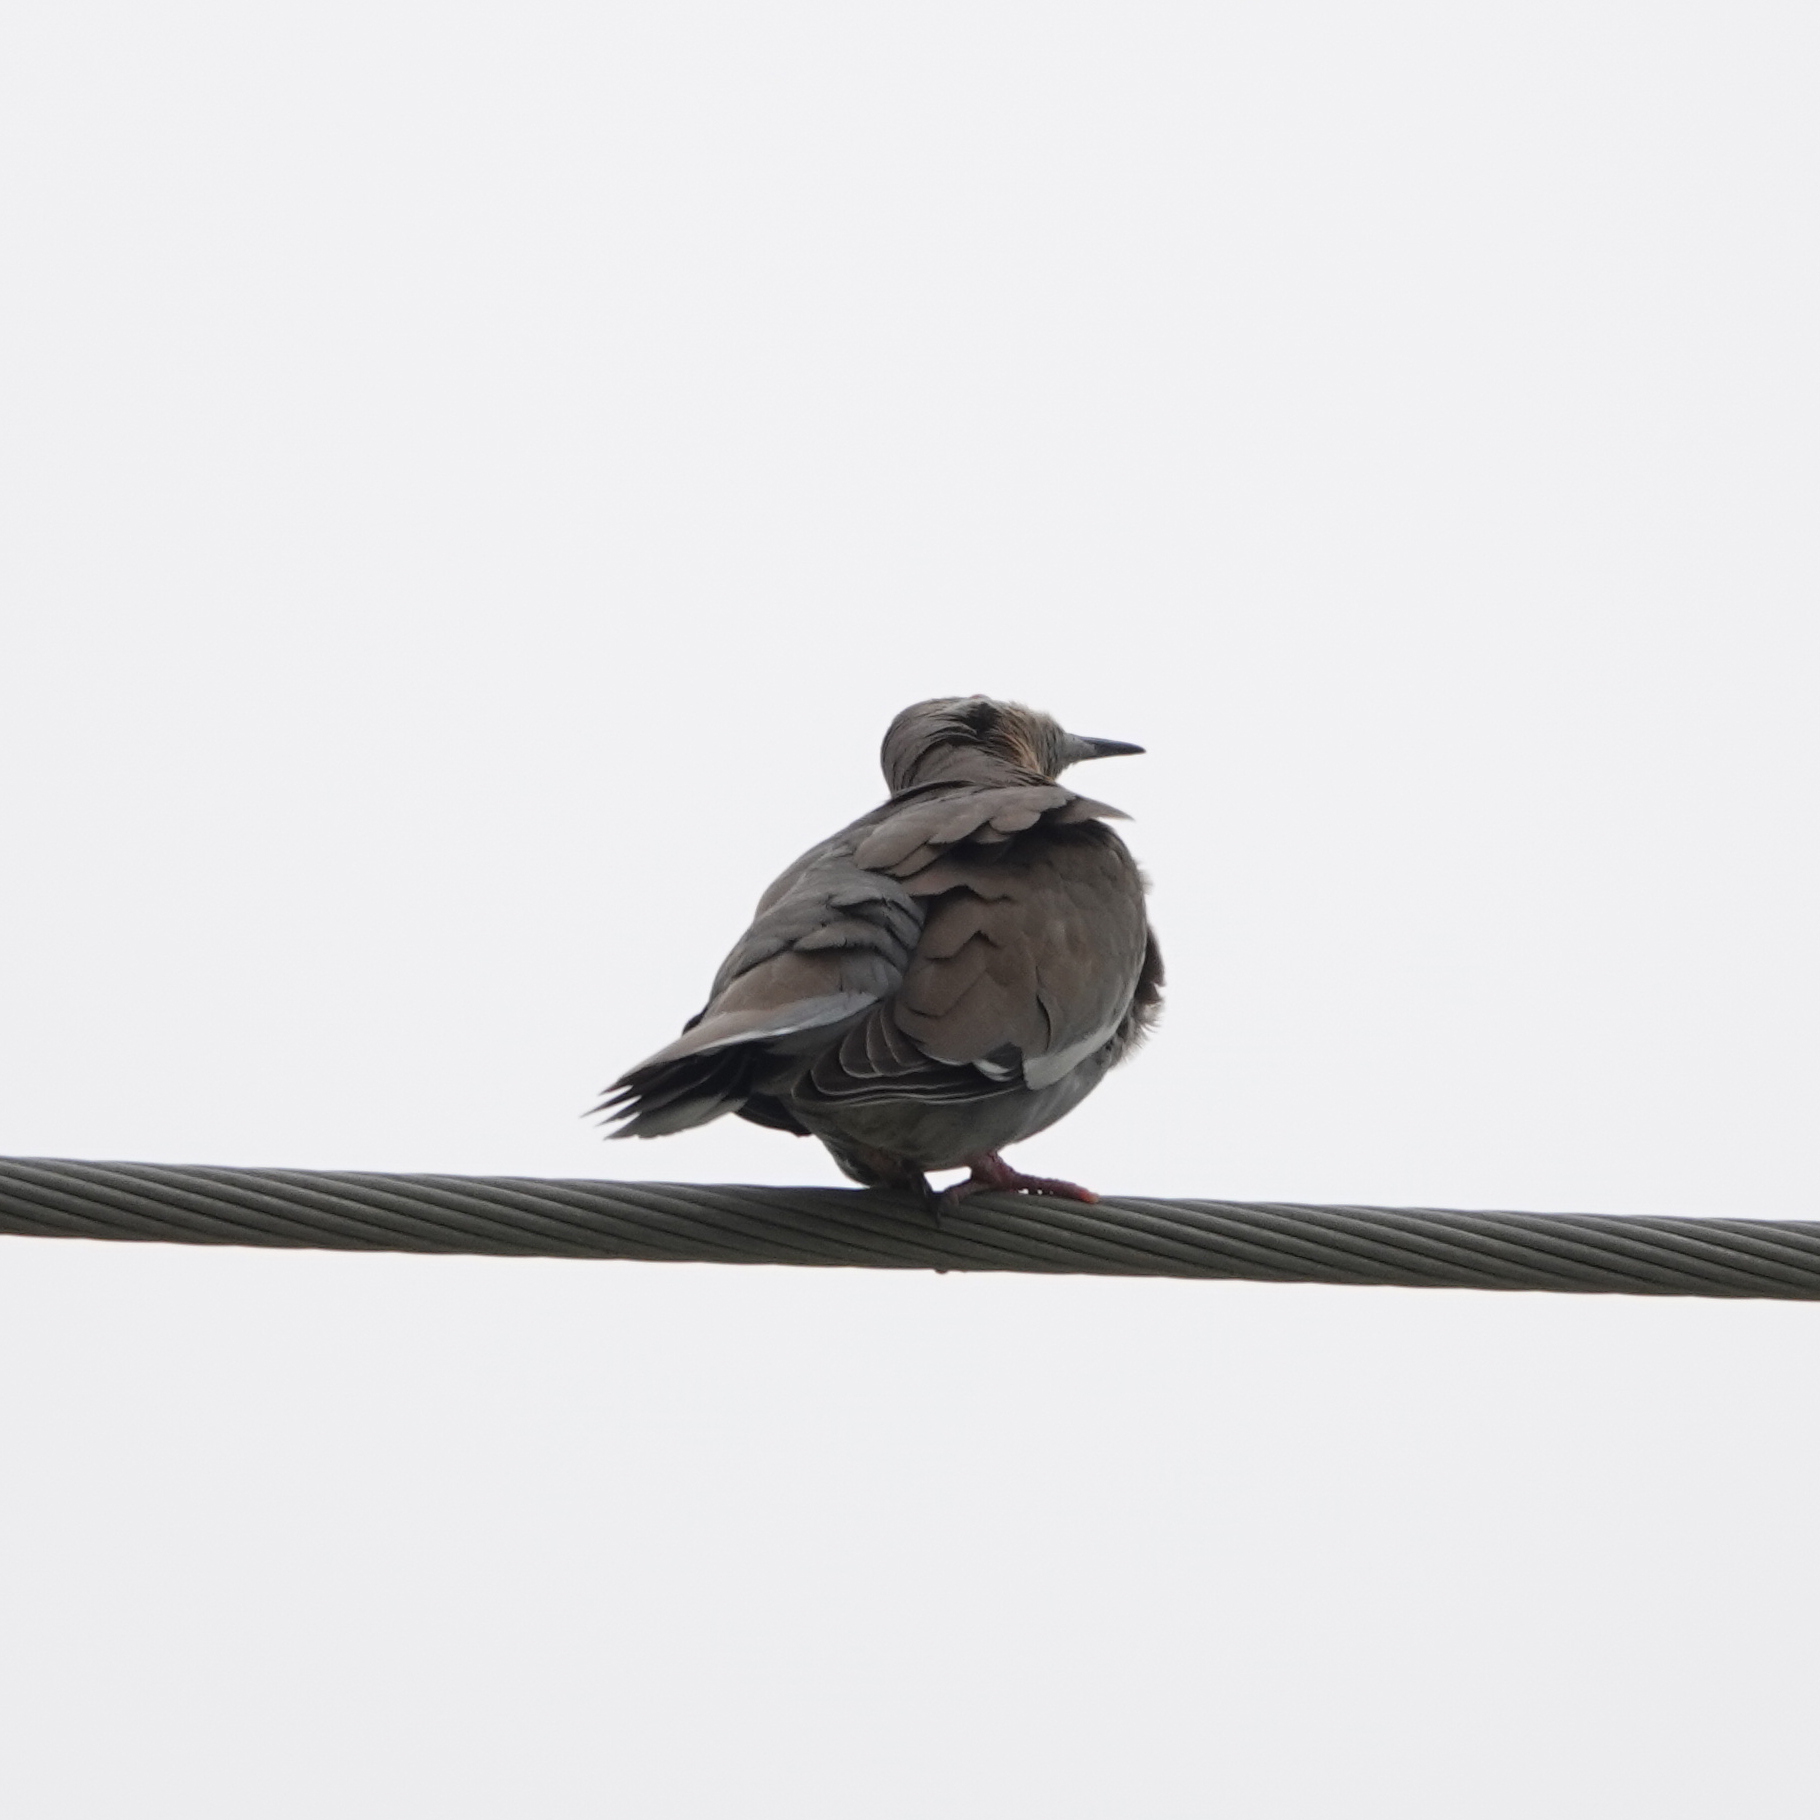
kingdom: Animalia
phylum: Chordata
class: Aves
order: Columbiformes
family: Columbidae
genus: Zenaida
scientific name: Zenaida asiatica
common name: White-winged dove
